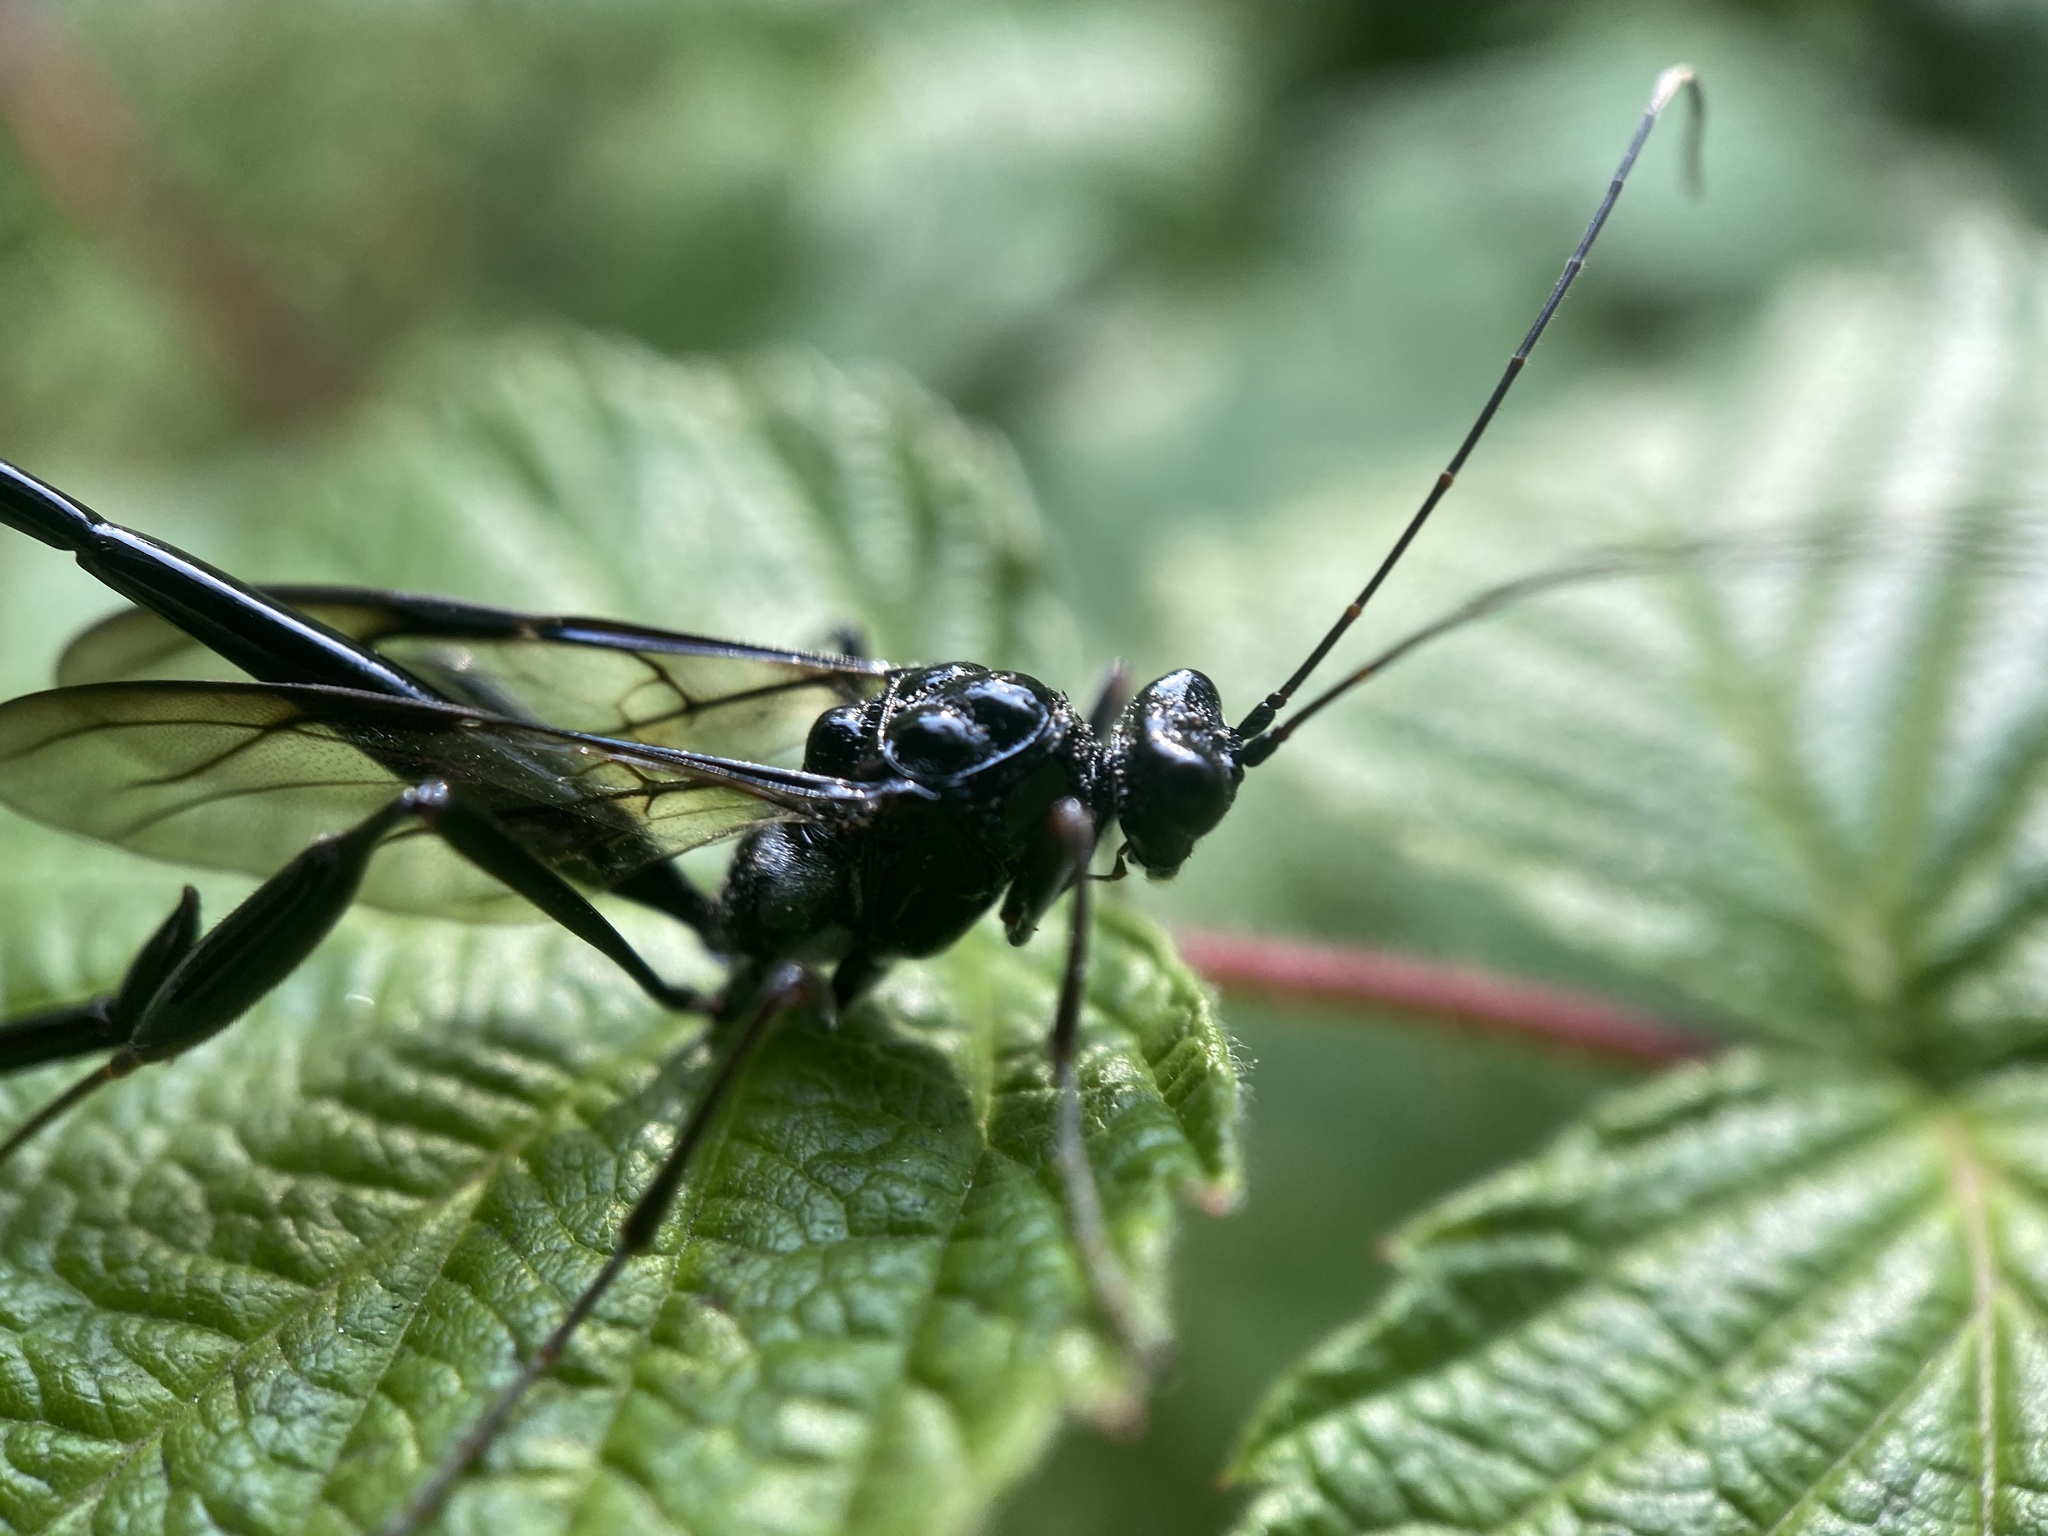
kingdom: Animalia
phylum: Arthropoda
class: Insecta
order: Hymenoptera
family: Pelecinidae
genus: Pelecinus
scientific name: Pelecinus polyturator
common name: American pelecinid wasp
